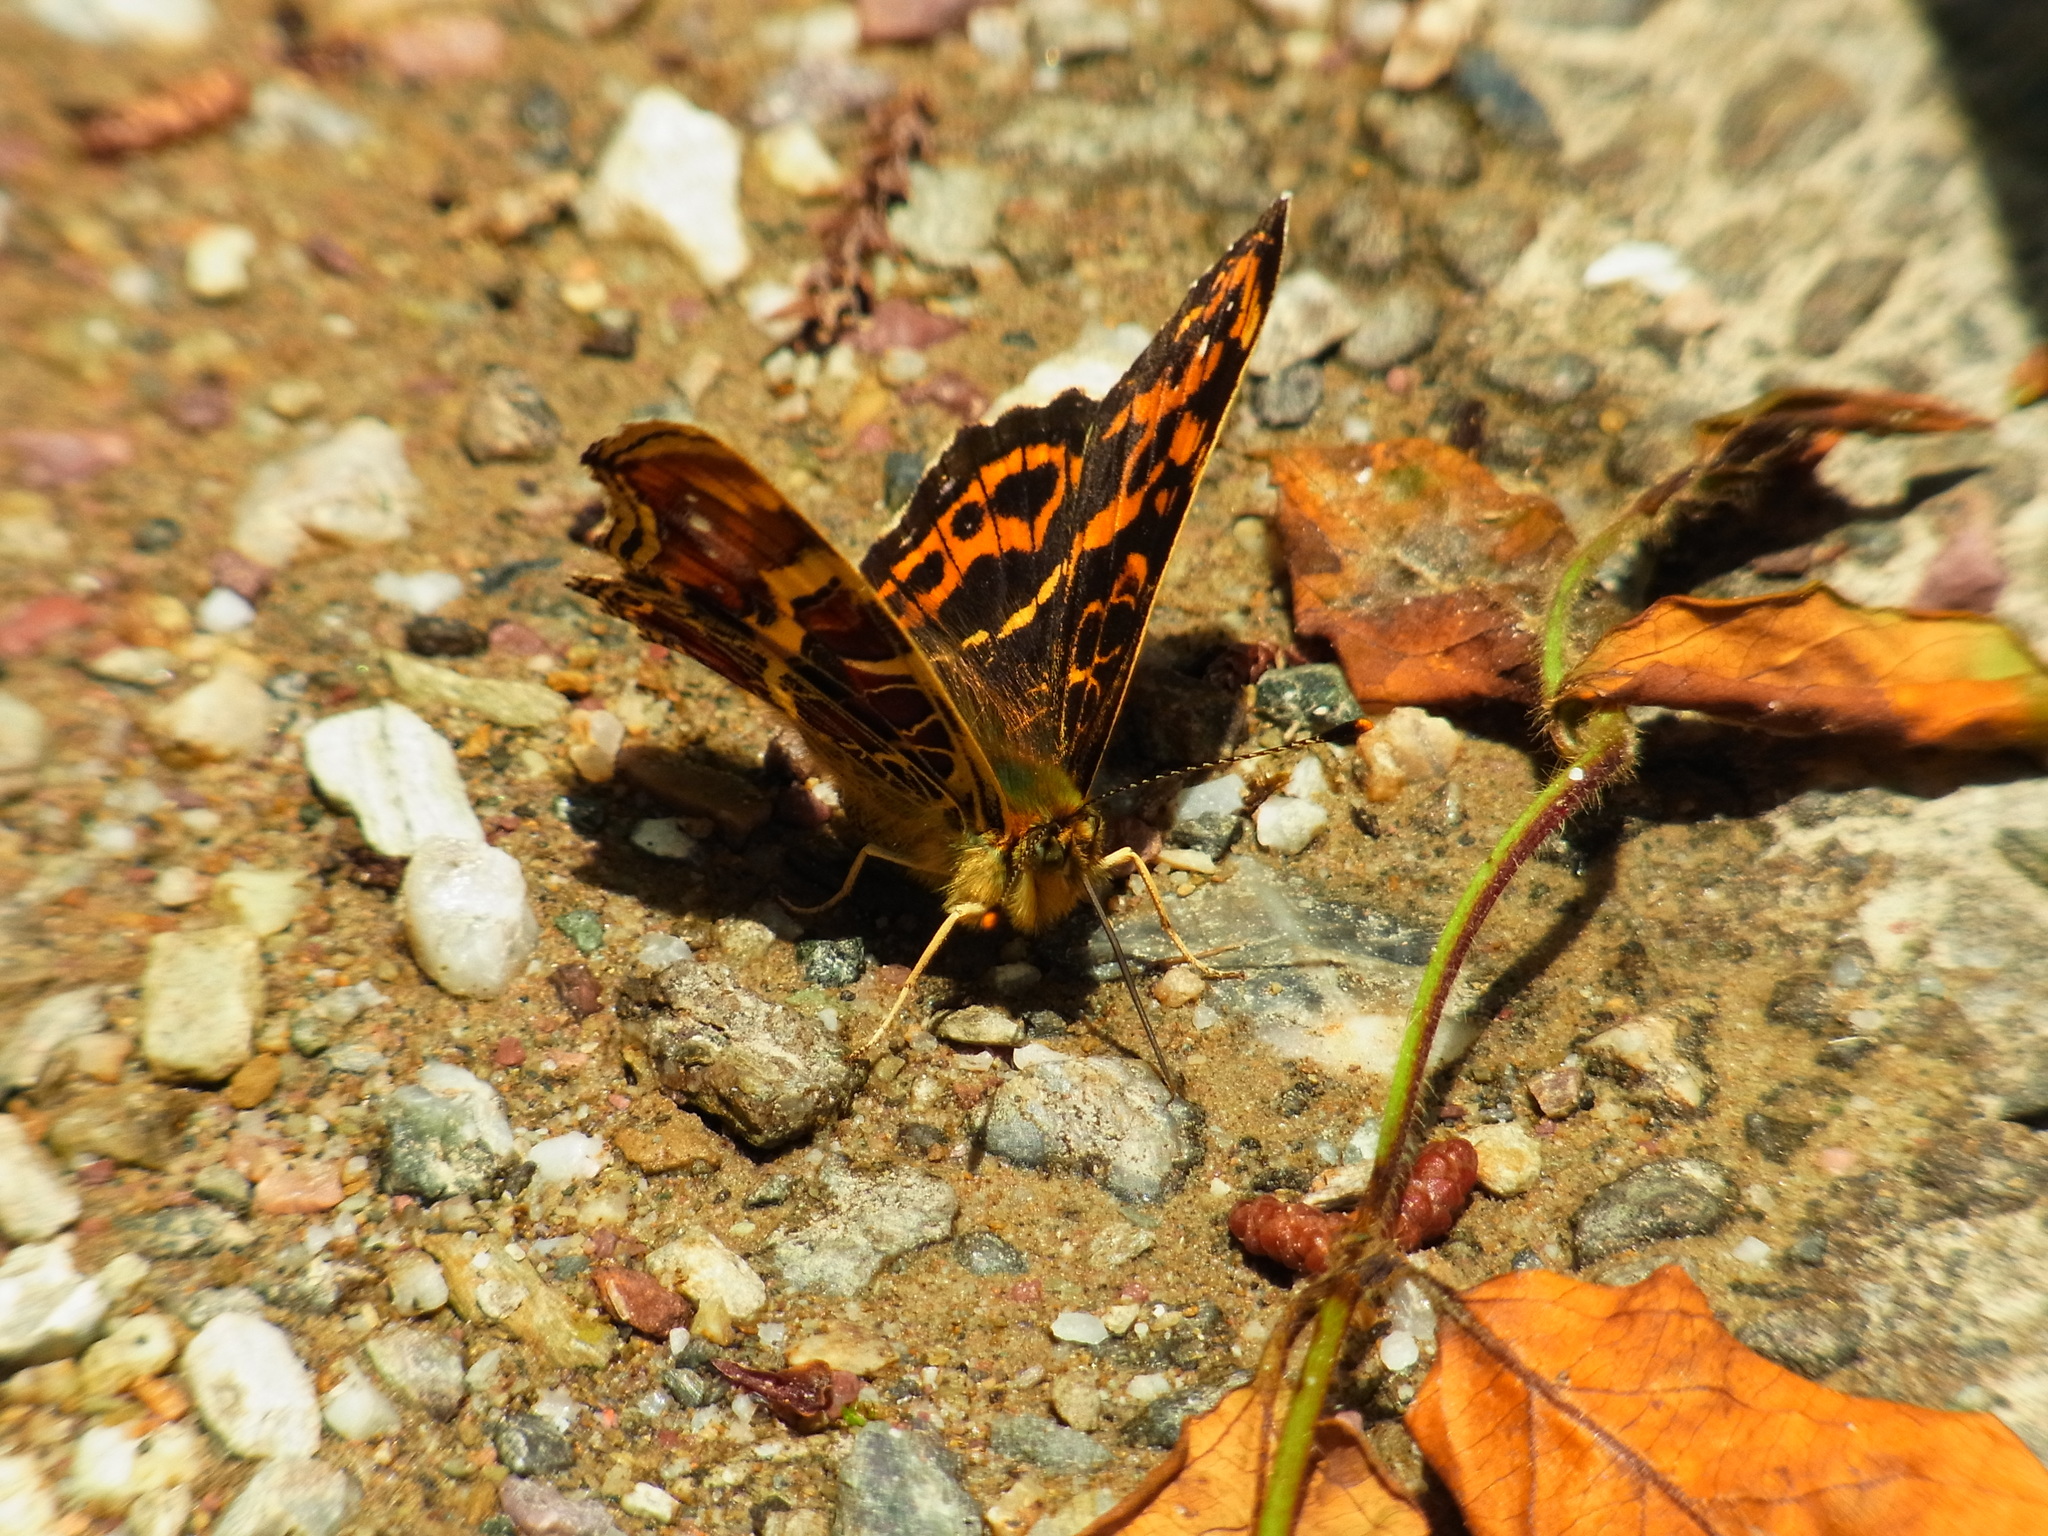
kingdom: Animalia
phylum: Arthropoda
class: Insecta
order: Lepidoptera
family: Nymphalidae
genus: Araschnia
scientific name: Araschnia burejana
